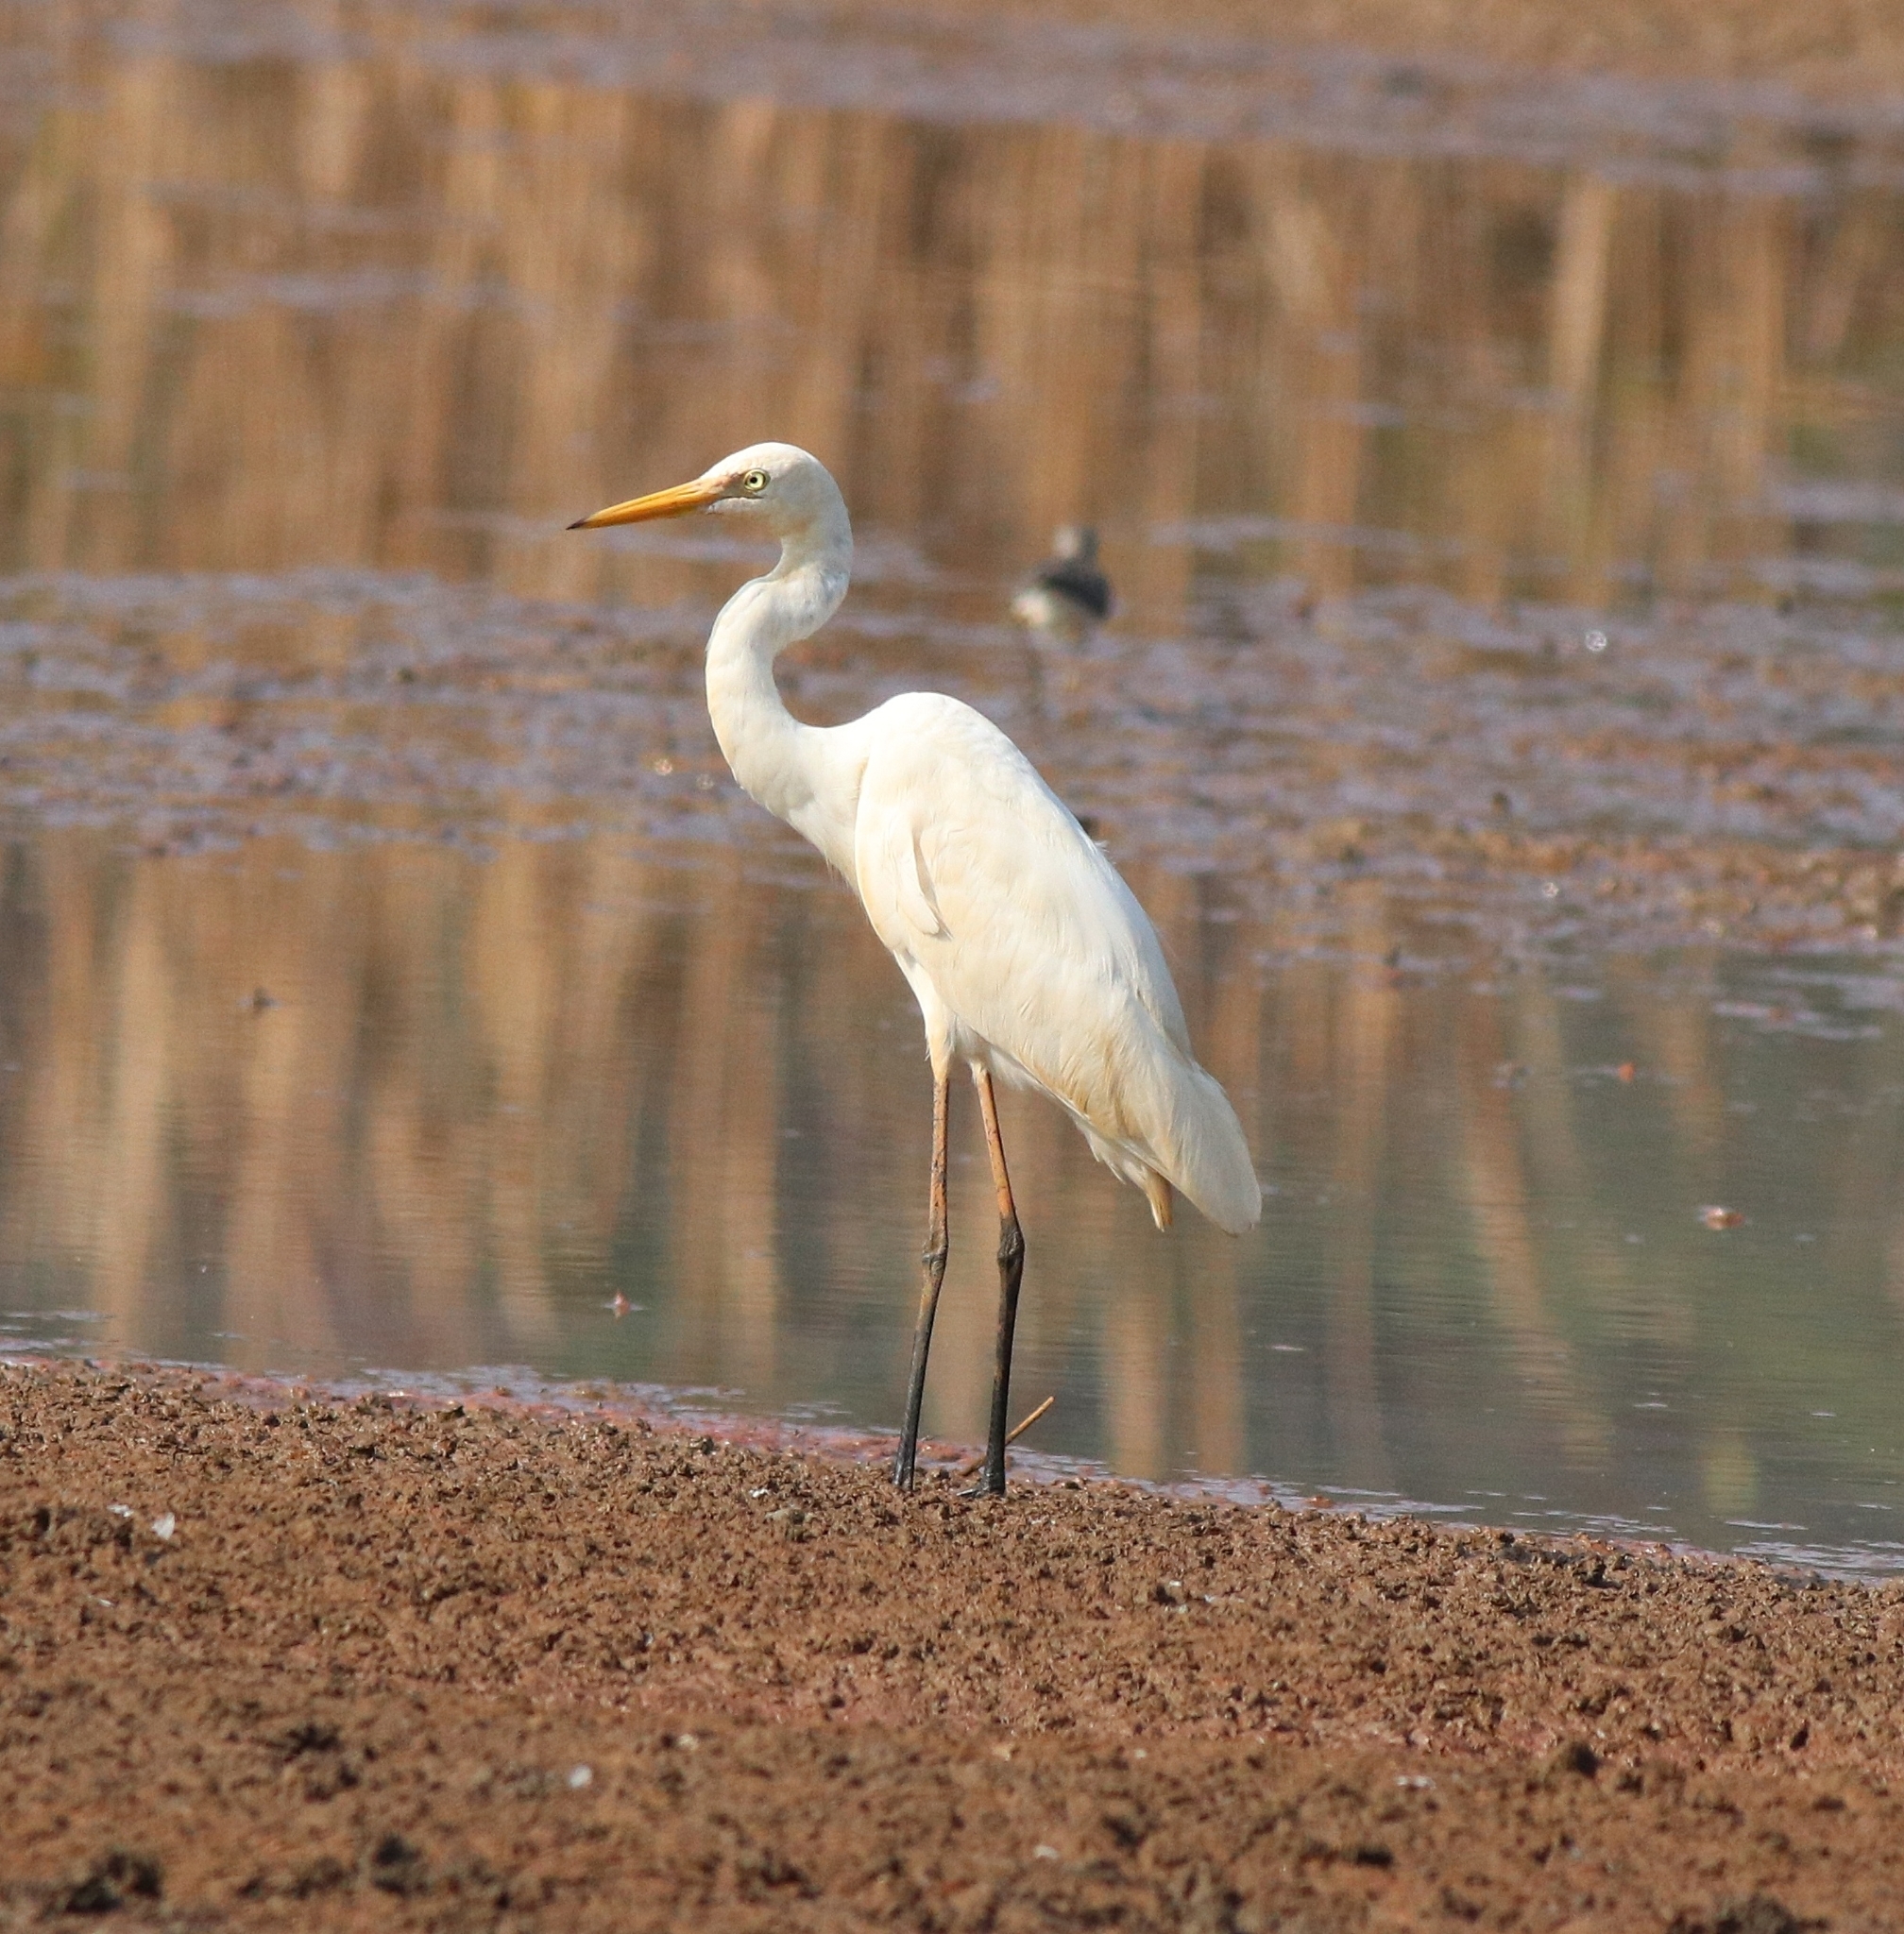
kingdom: Animalia
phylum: Chordata
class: Aves
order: Pelecaniformes
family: Ardeidae
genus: Egretta
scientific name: Egretta intermedia
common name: Intermediate egret
